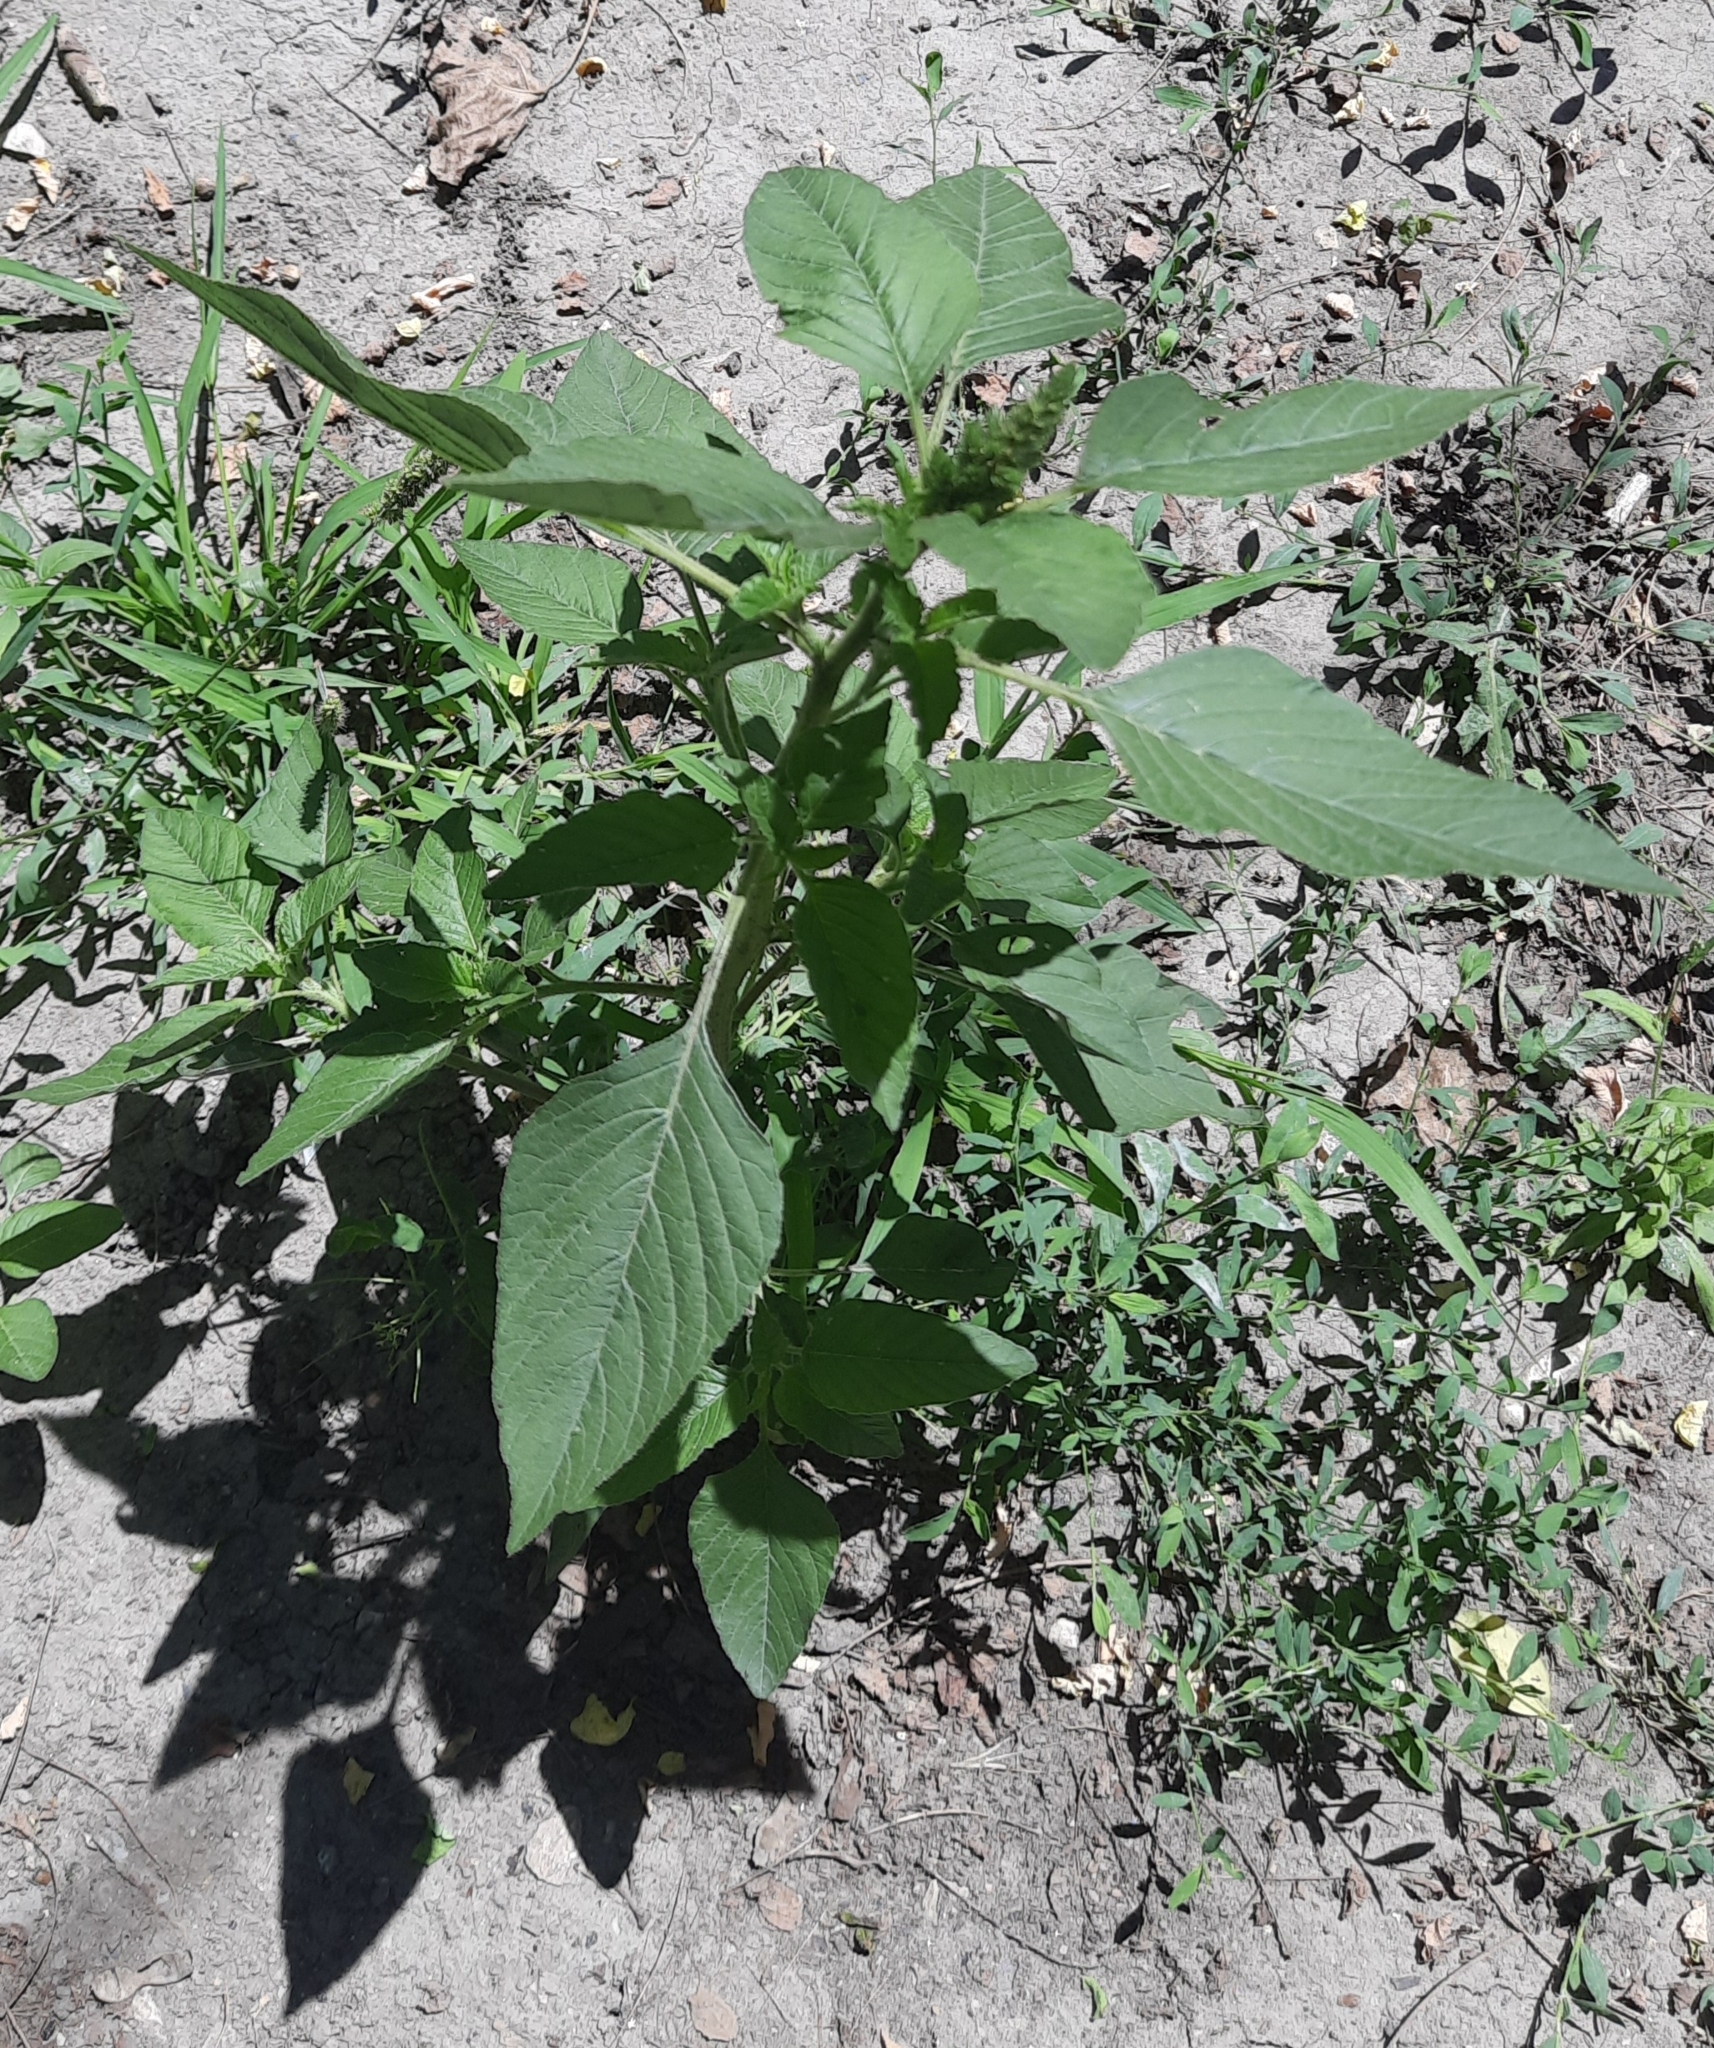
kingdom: Plantae
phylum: Tracheophyta
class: Magnoliopsida
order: Caryophyllales
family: Amaranthaceae
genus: Amaranthus
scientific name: Amaranthus retroflexus
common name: Redroot amaranth
